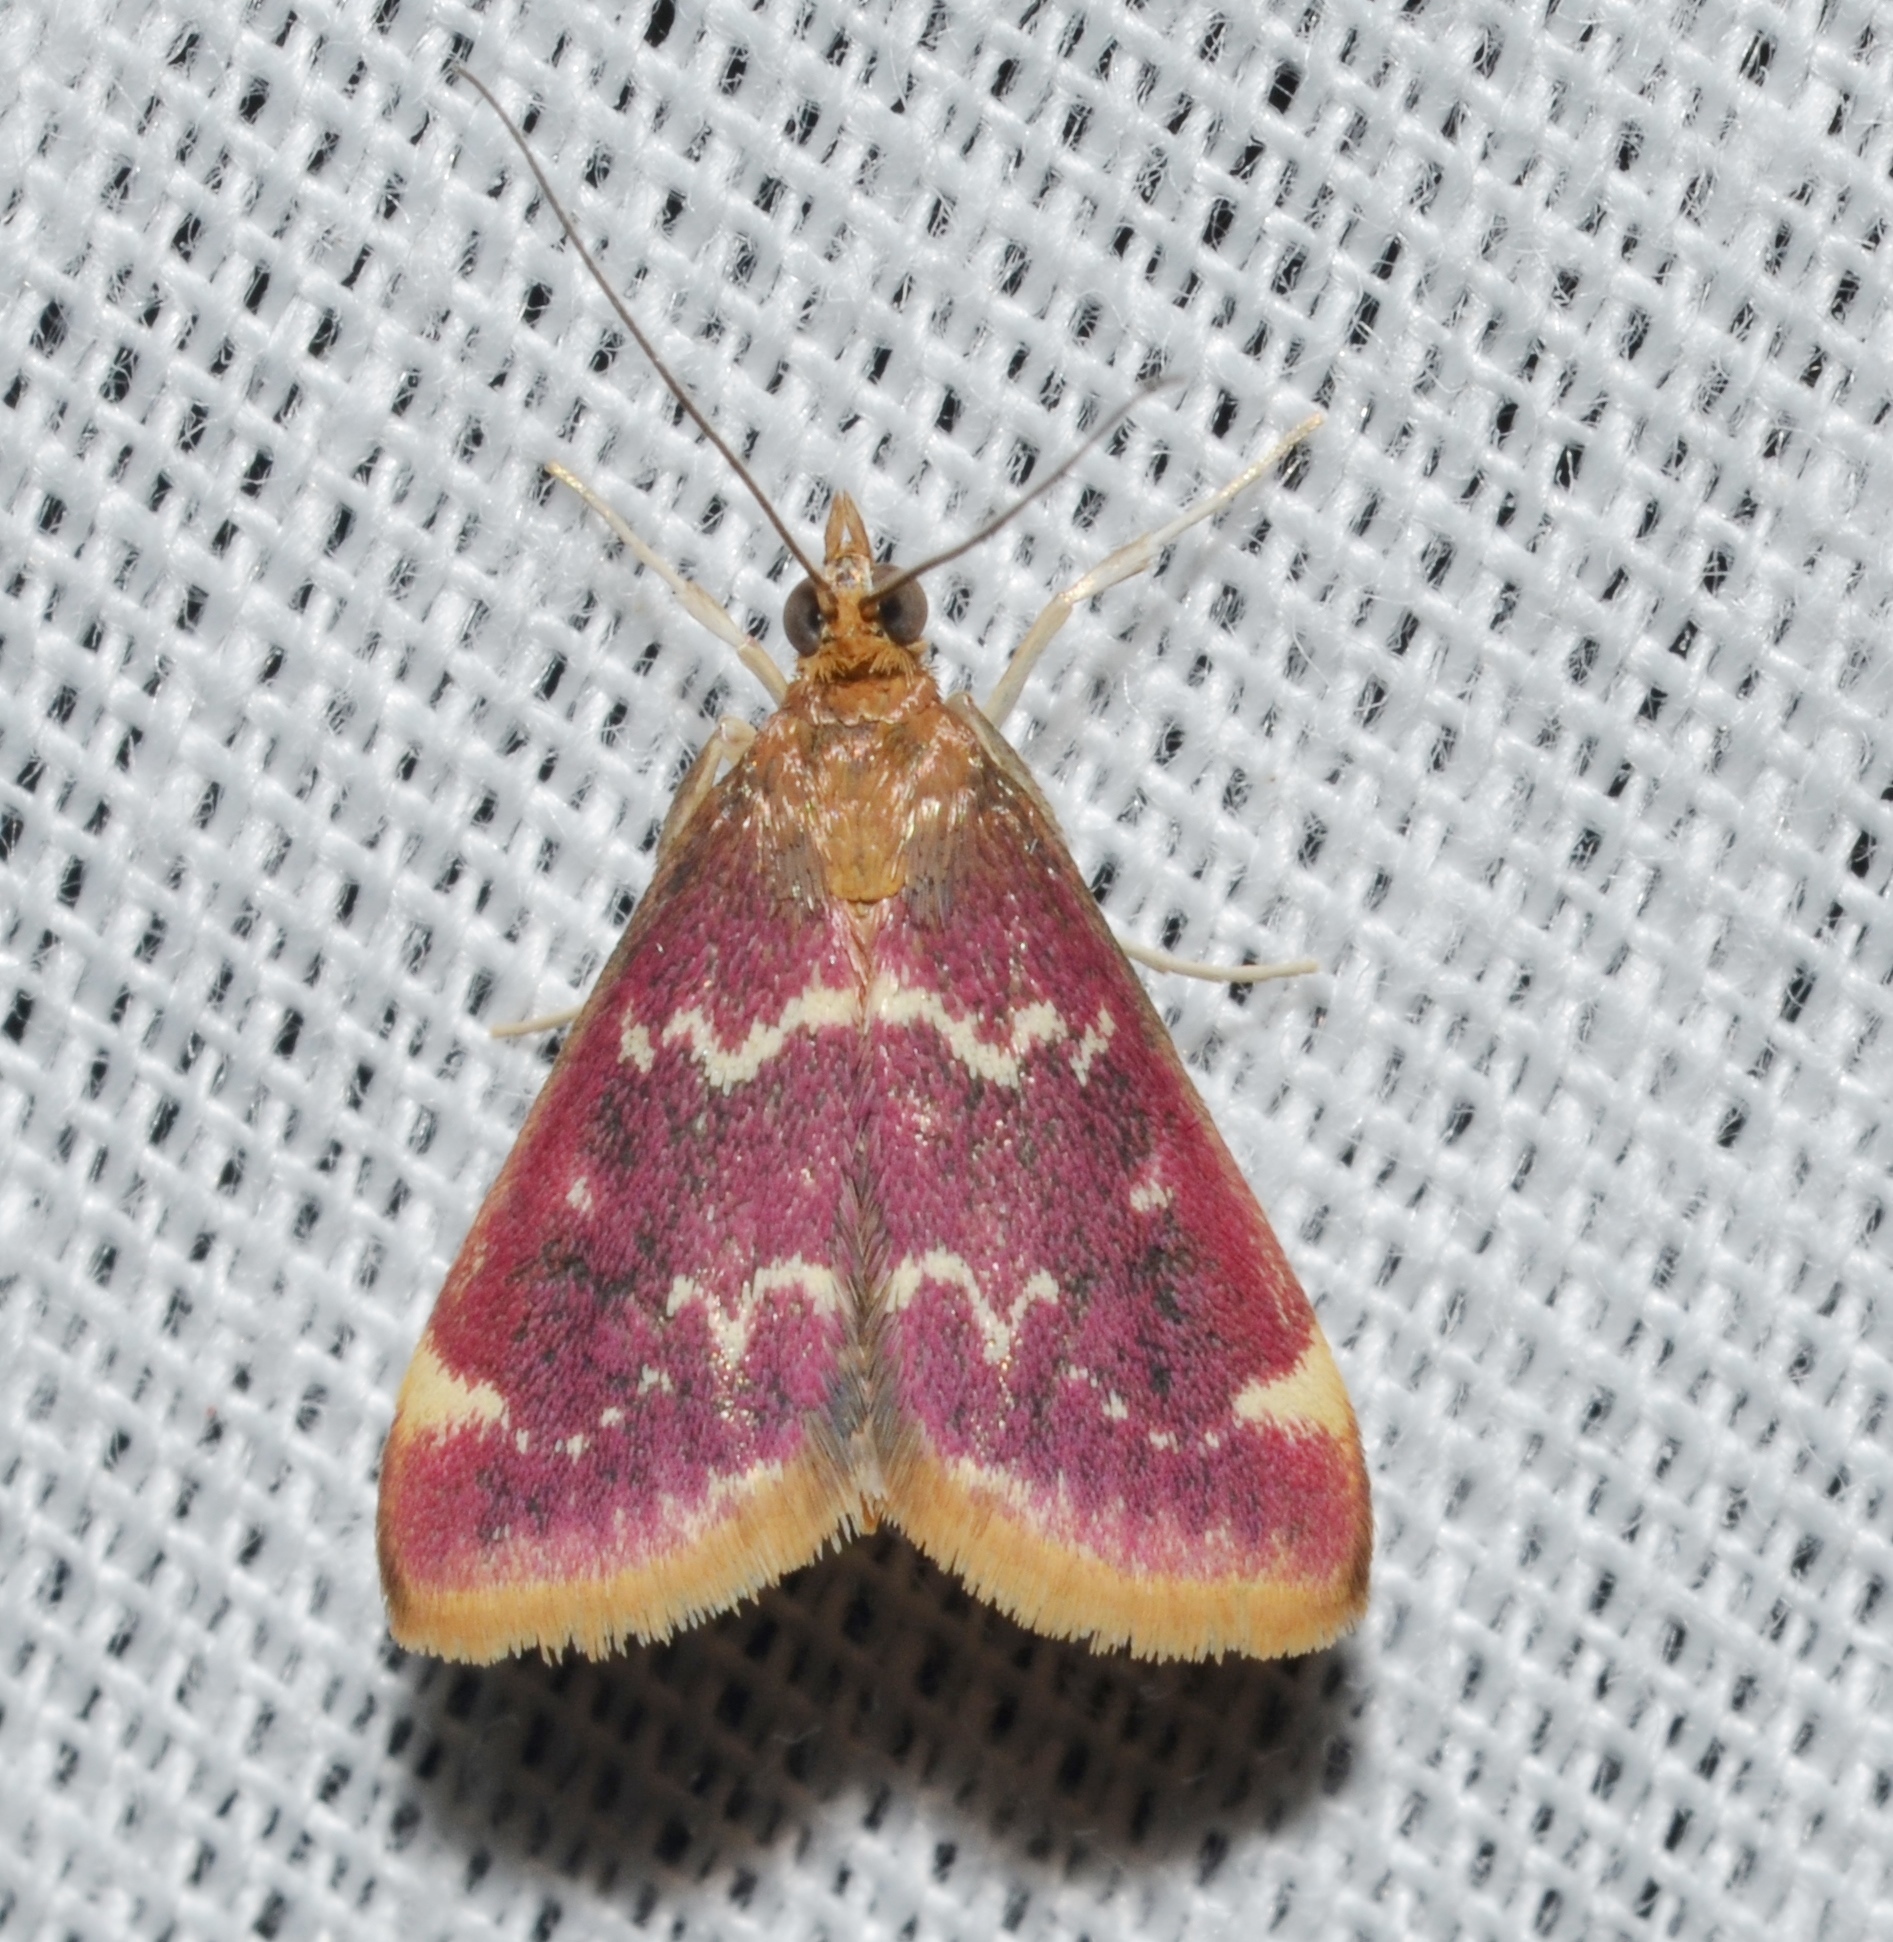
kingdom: Animalia
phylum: Arthropoda
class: Insecta
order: Lepidoptera
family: Crambidae
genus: Pyrausta
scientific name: Pyrausta signatalis
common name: Raspberry pyrausta moth
